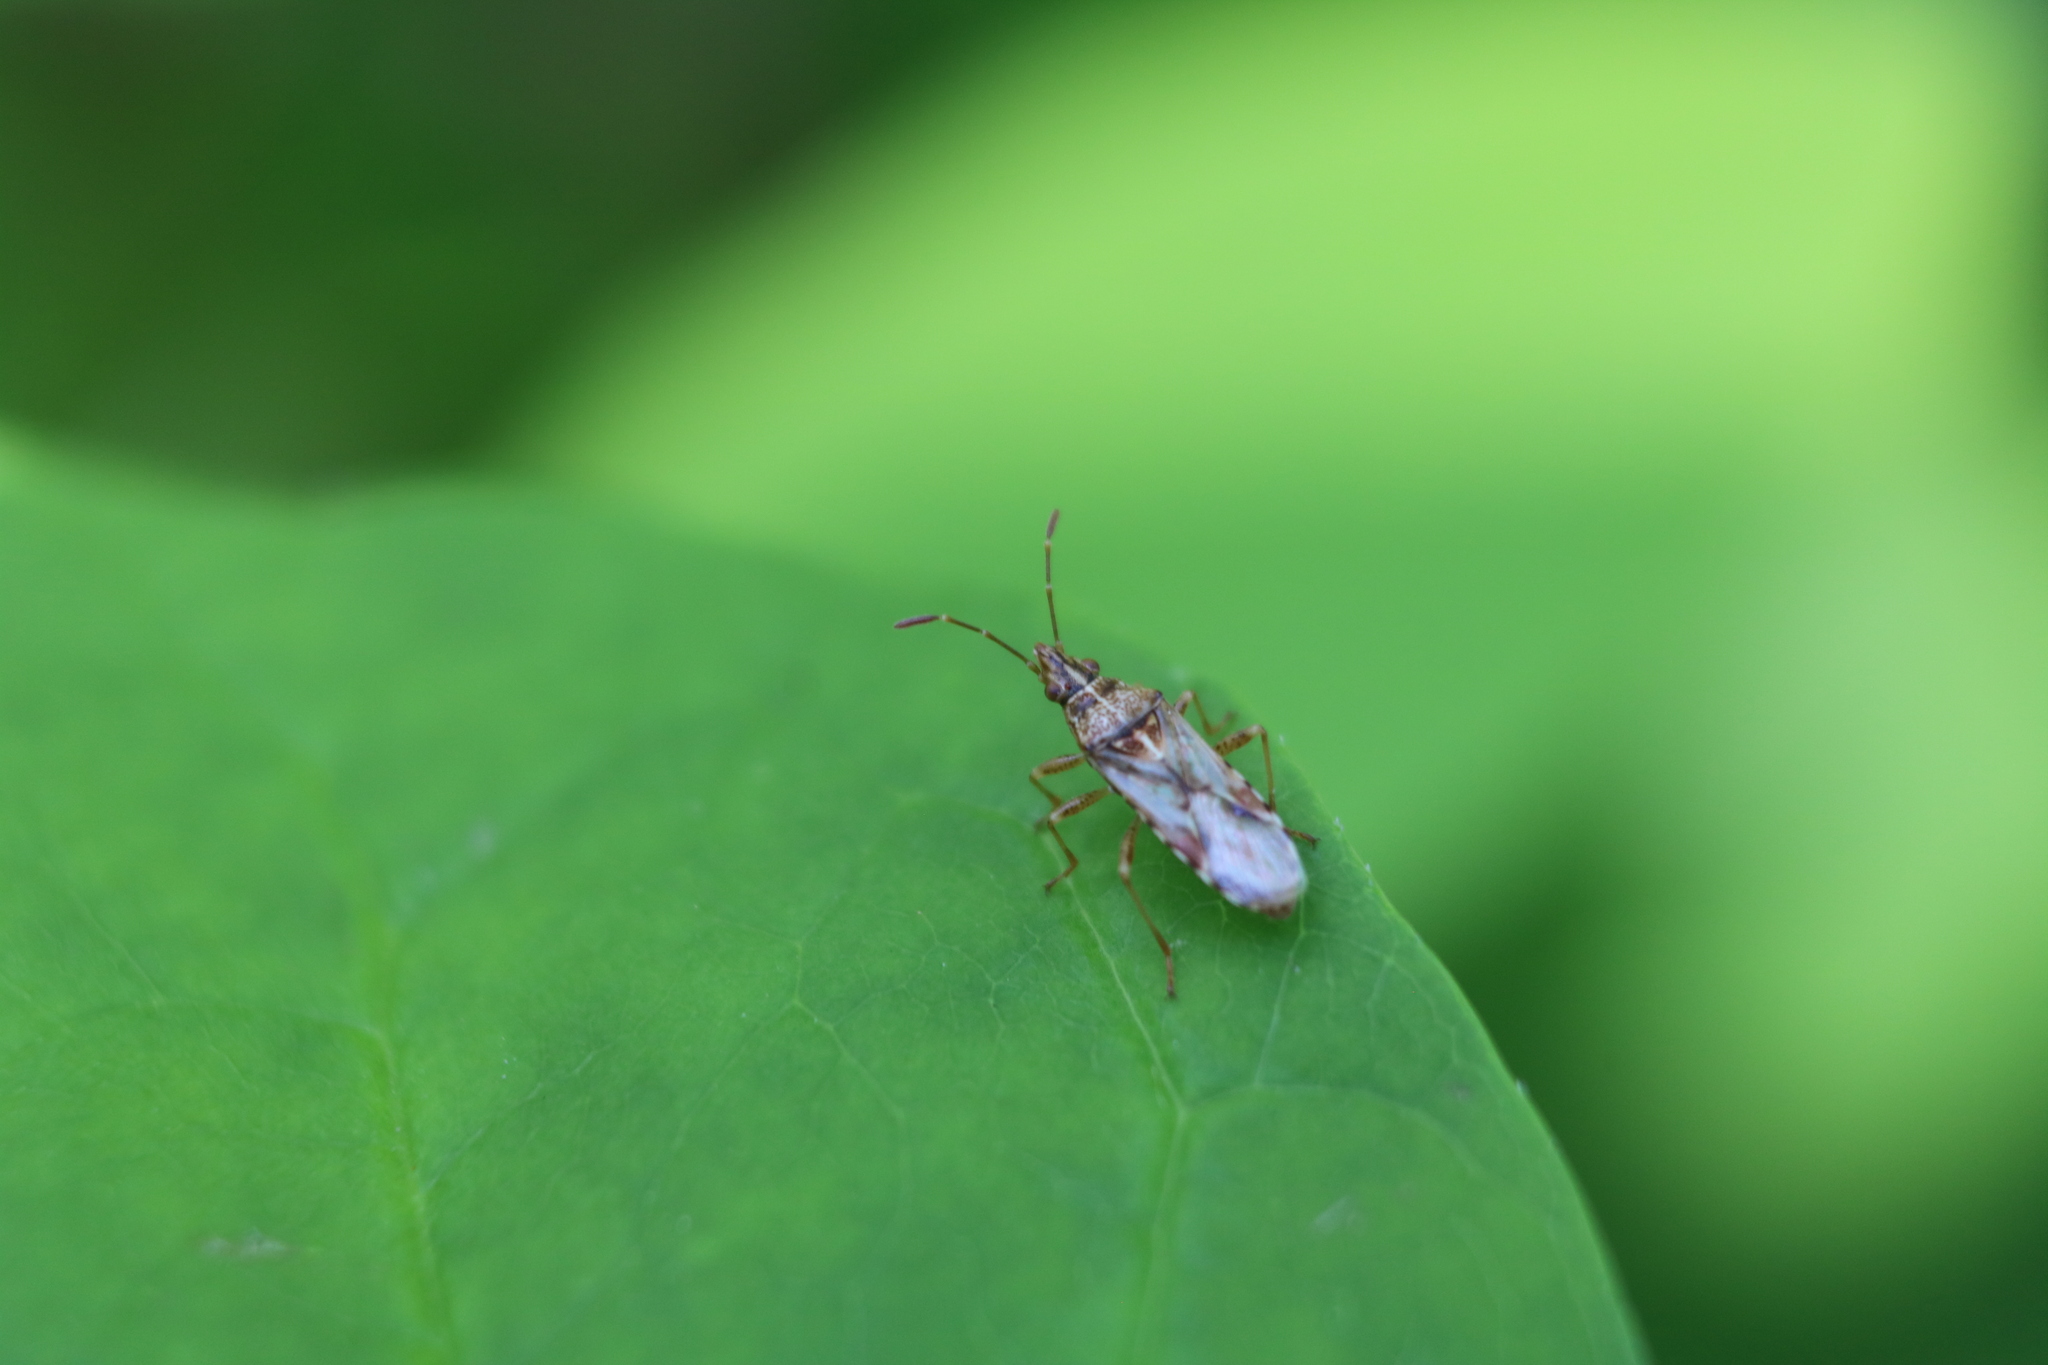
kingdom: Animalia
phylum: Arthropoda
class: Insecta
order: Hemiptera
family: Lygaeidae
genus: Belonochilus
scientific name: Belonochilus numenius
